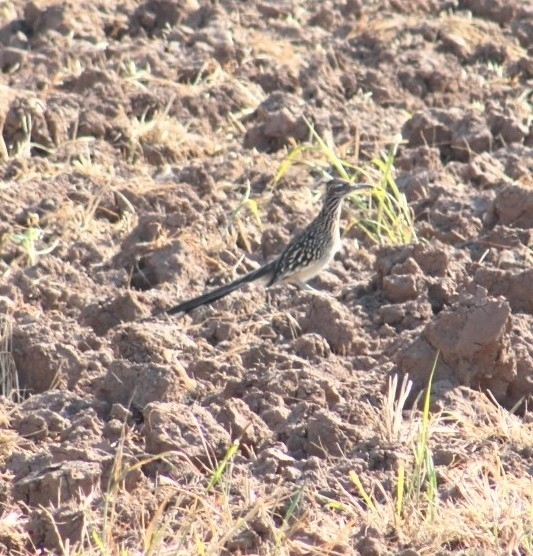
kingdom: Animalia
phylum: Chordata
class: Aves
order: Cuculiformes
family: Cuculidae
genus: Geococcyx
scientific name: Geococcyx californianus
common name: Greater roadrunner
